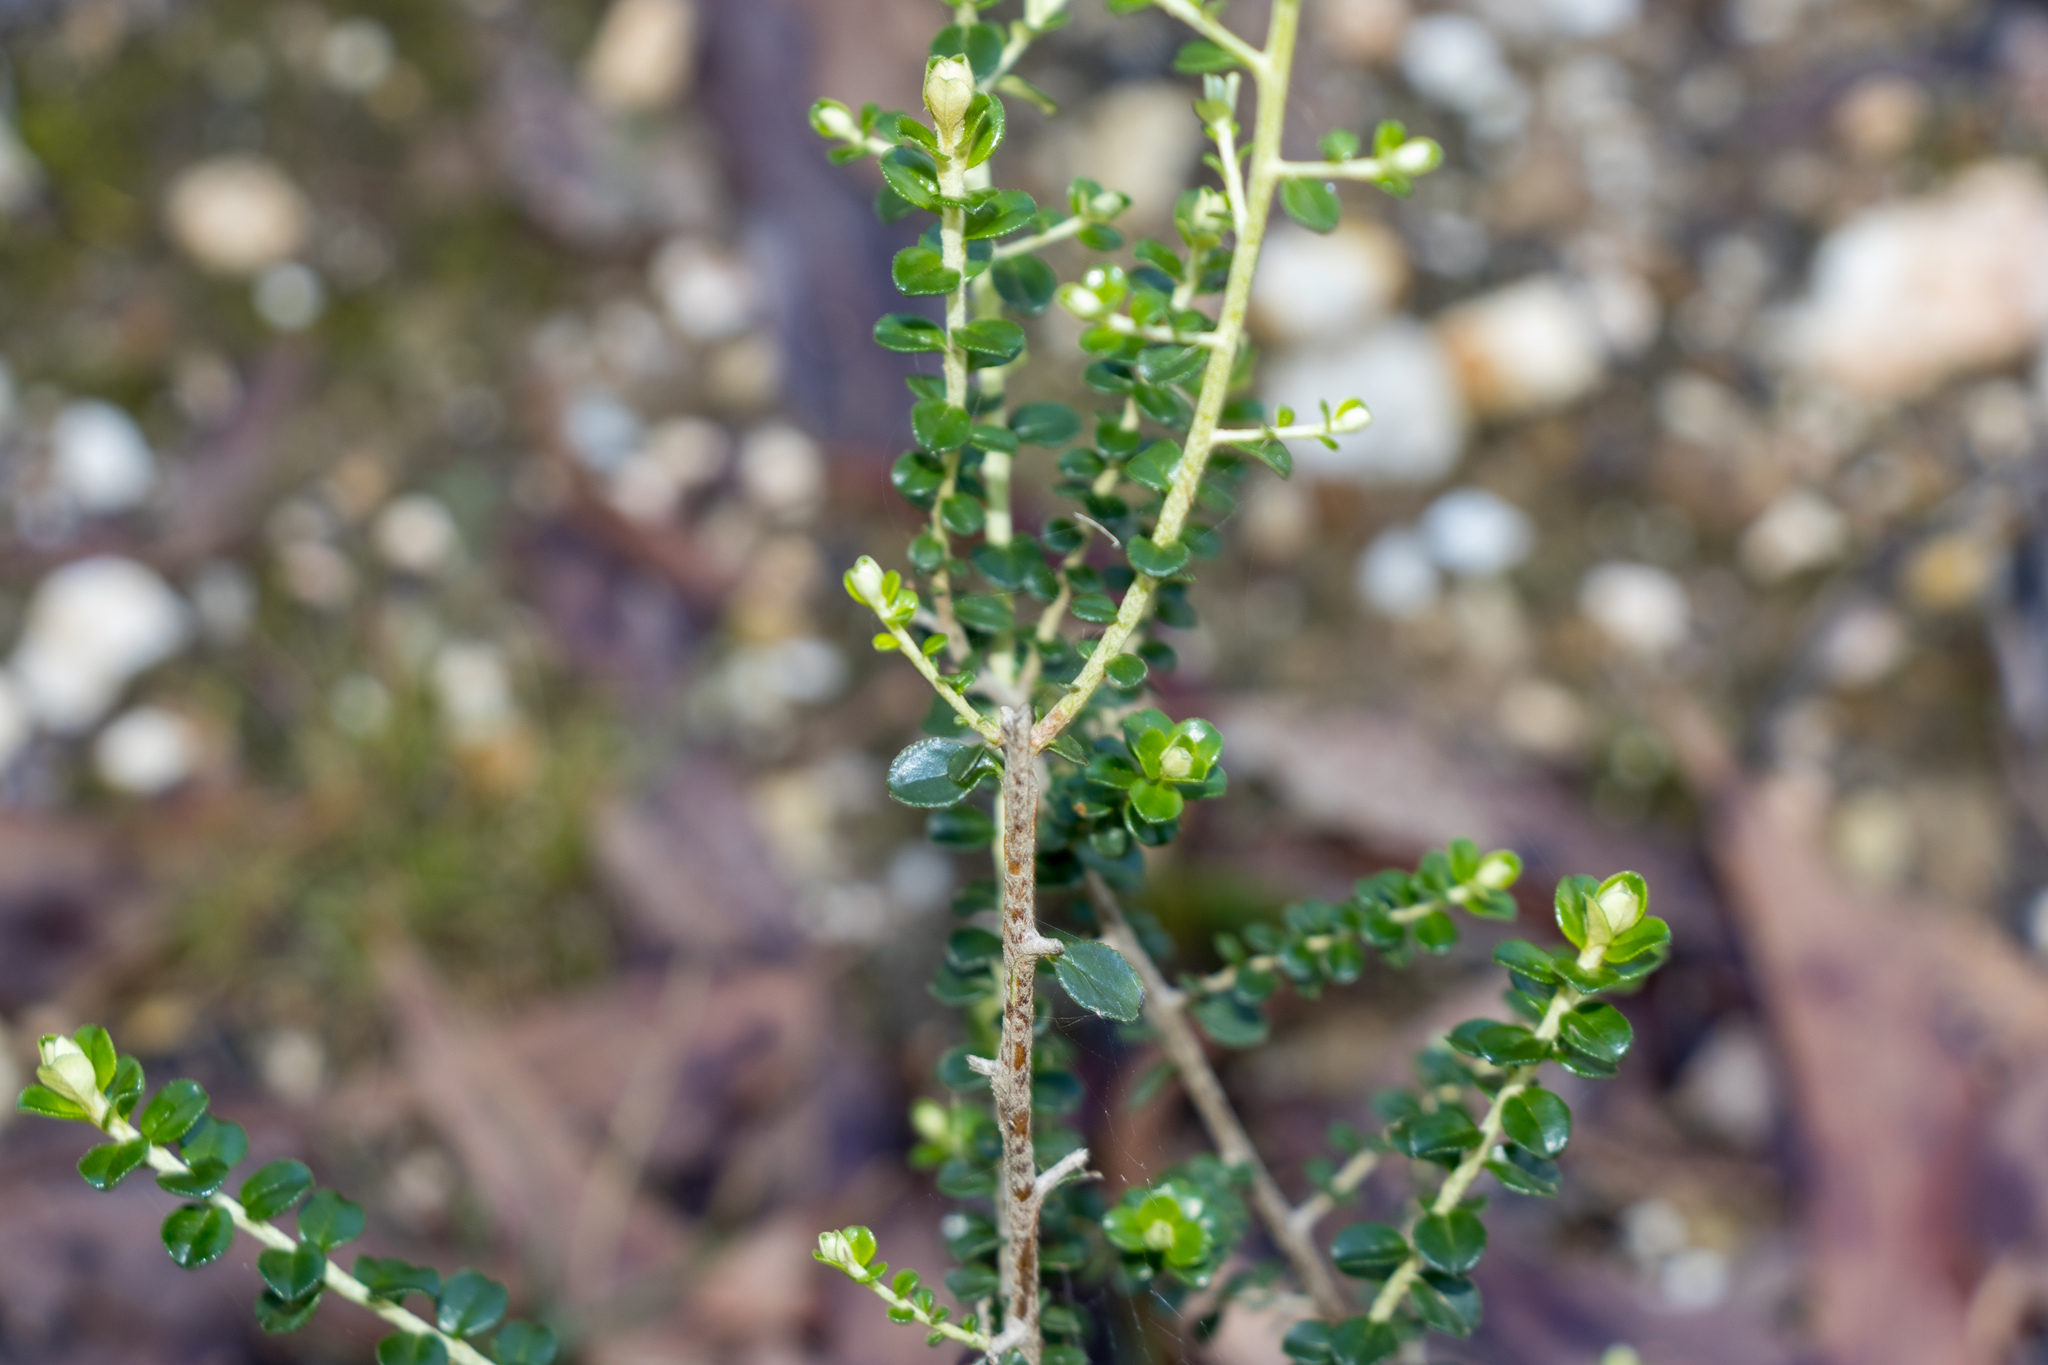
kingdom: Plantae
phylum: Tracheophyta
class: Magnoliopsida
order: Asterales
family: Asteraceae
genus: Ozothamnus
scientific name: Ozothamnus obcordatus
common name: Grey everlasting
